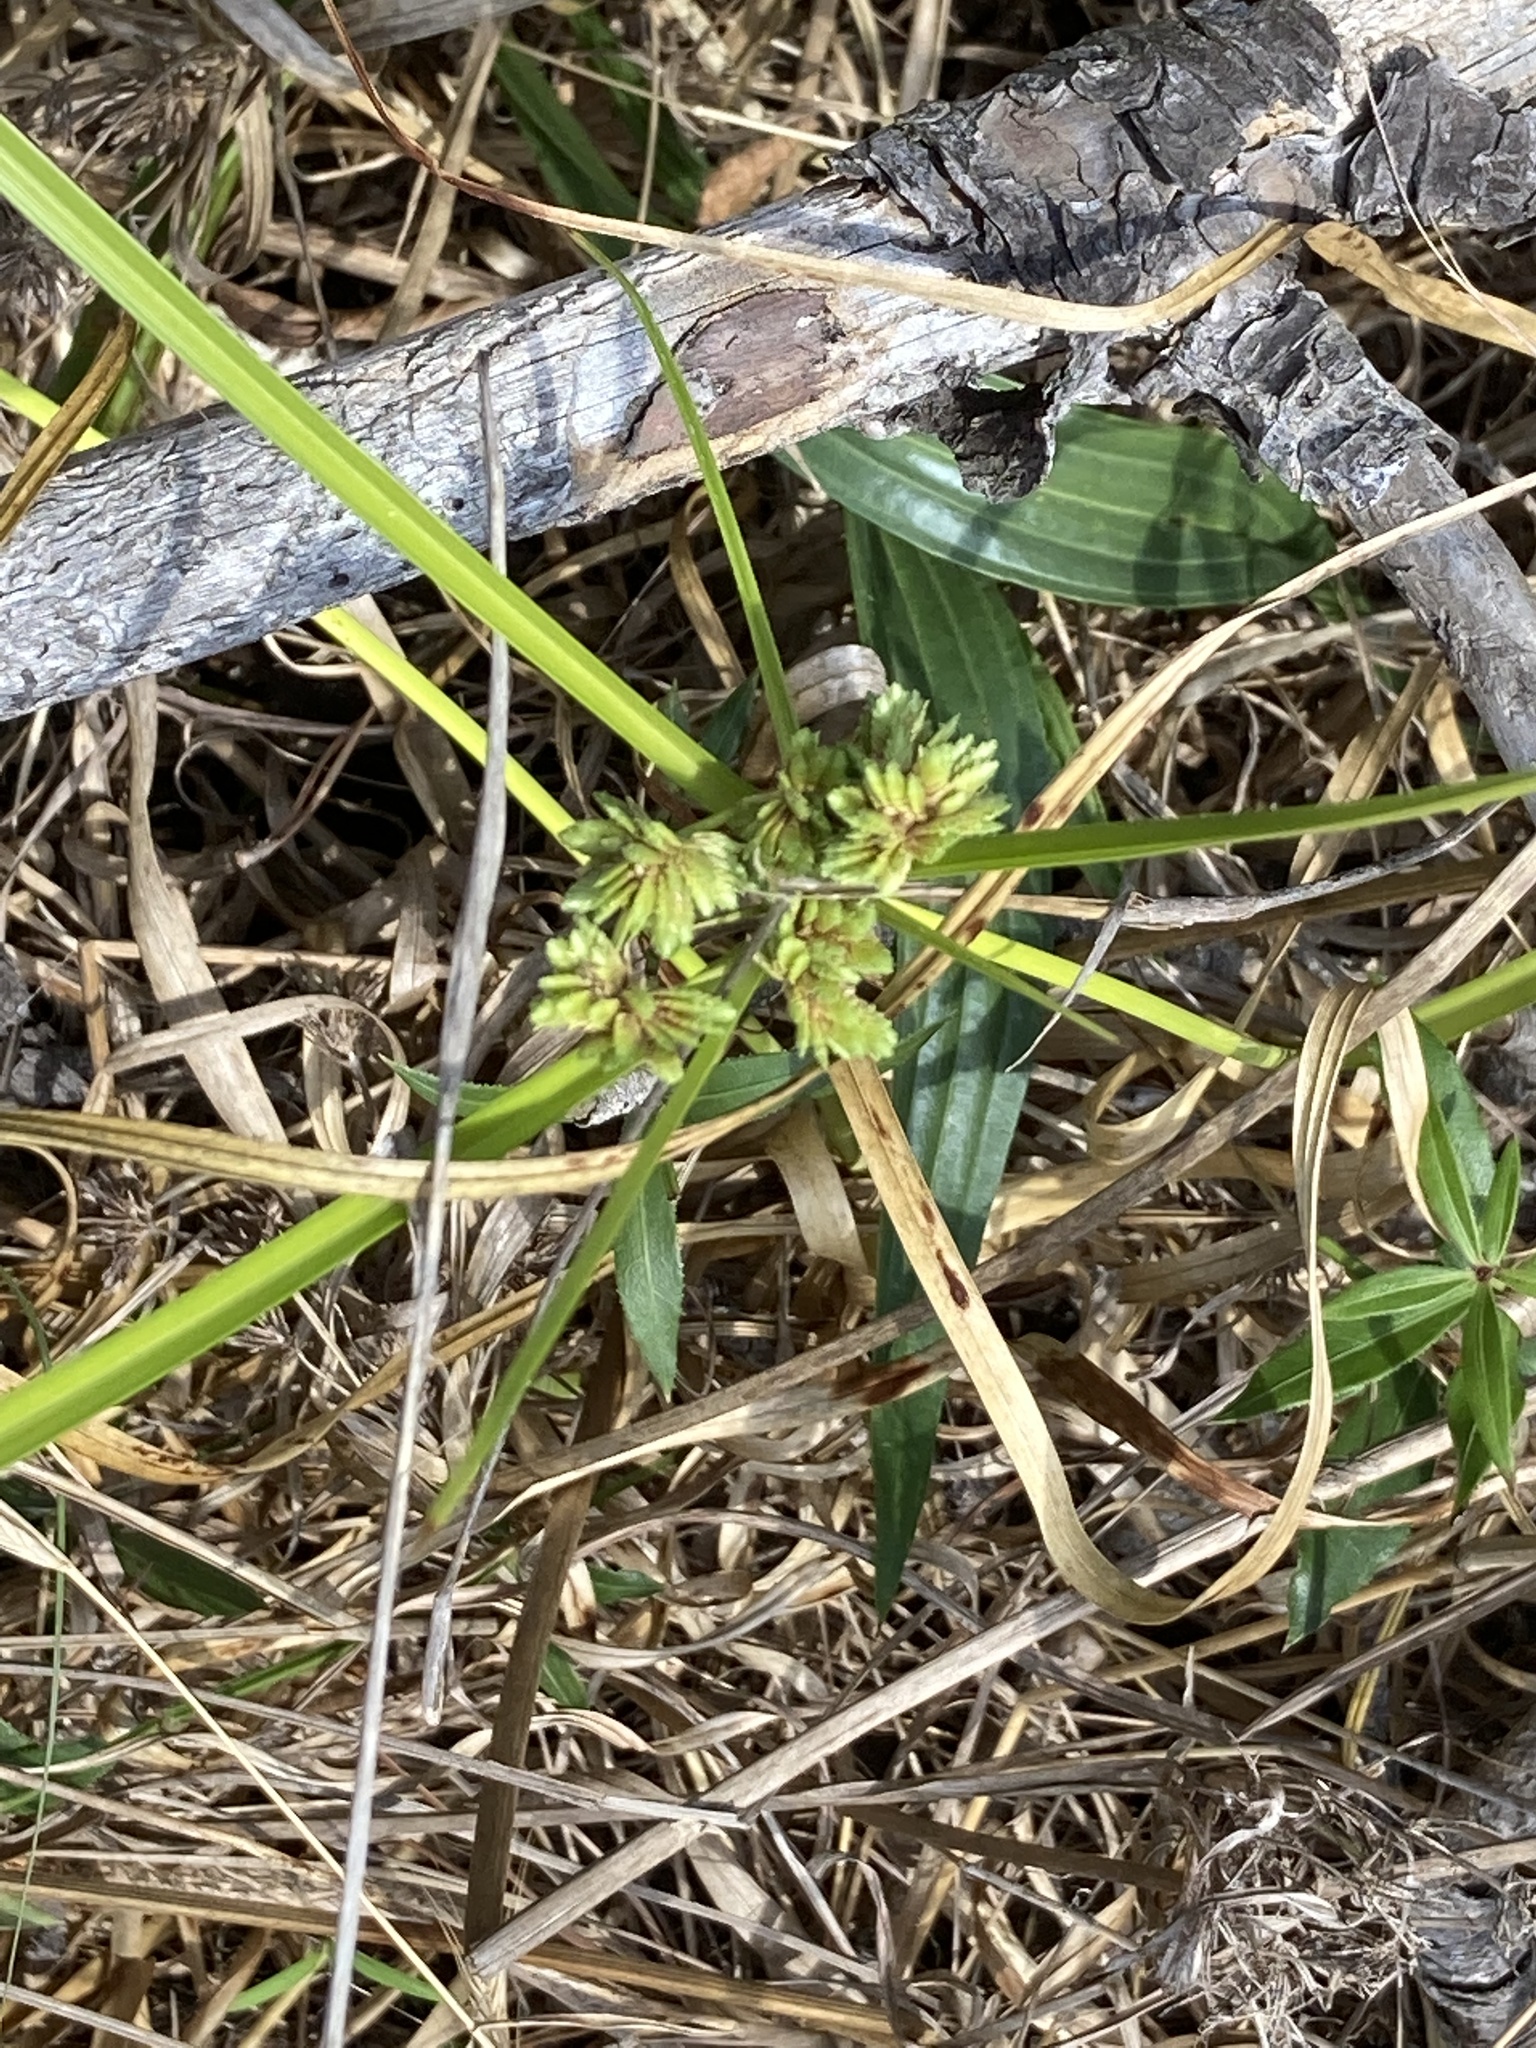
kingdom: Plantae
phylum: Tracheophyta
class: Liliopsida
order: Poales
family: Cyperaceae
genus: Cyperus
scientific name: Cyperus eragrostis
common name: Tall flatsedge
